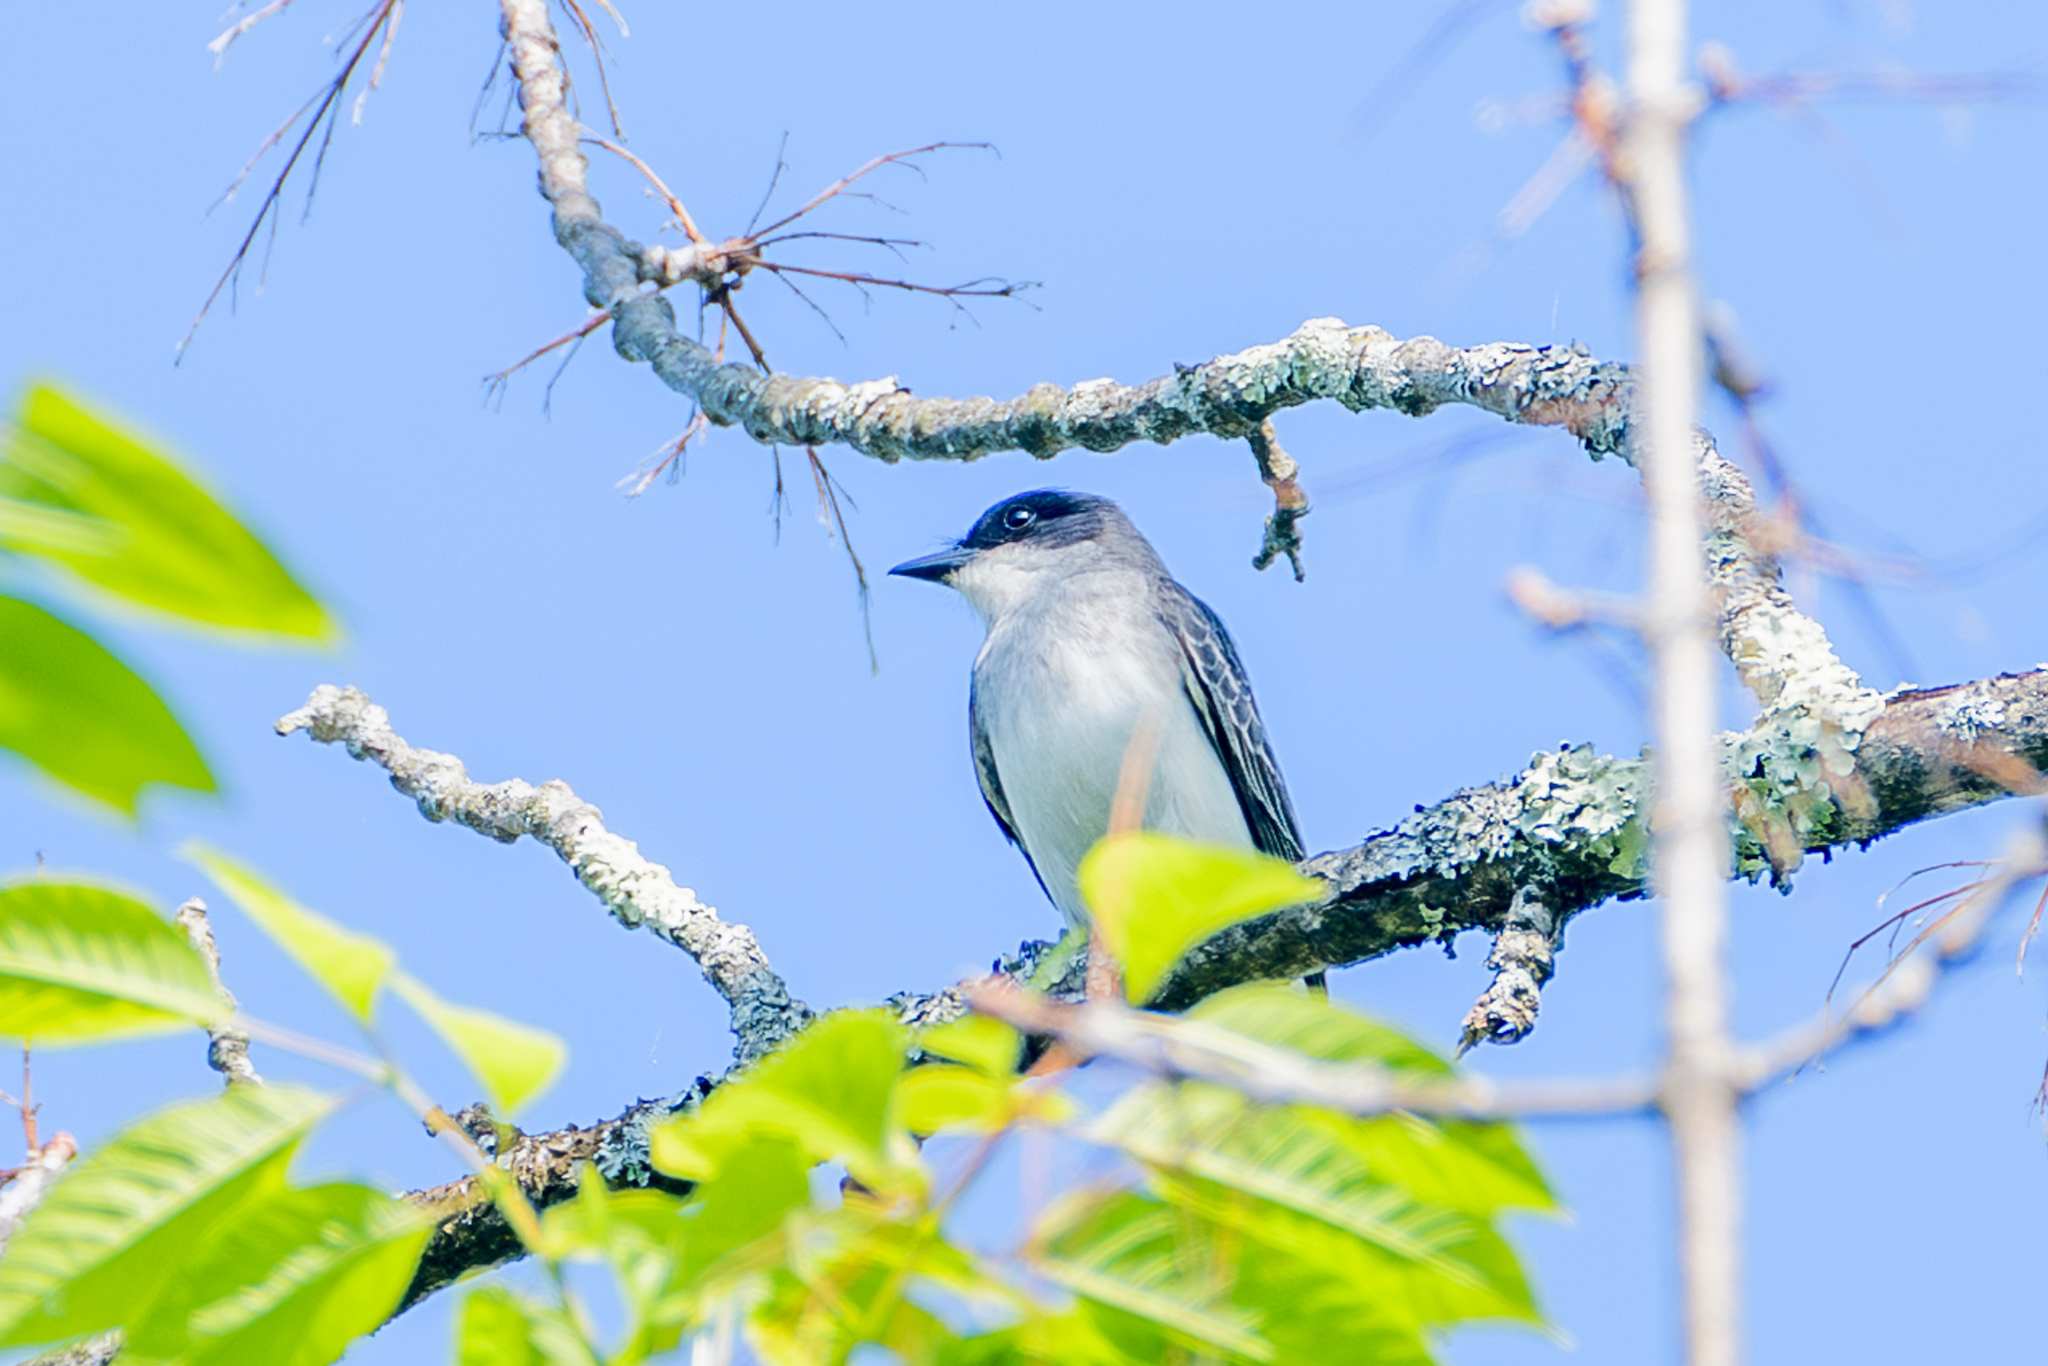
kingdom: Animalia
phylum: Chordata
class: Aves
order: Passeriformes
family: Tyrannidae
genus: Tyrannus
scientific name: Tyrannus tyrannus
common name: Eastern kingbird
